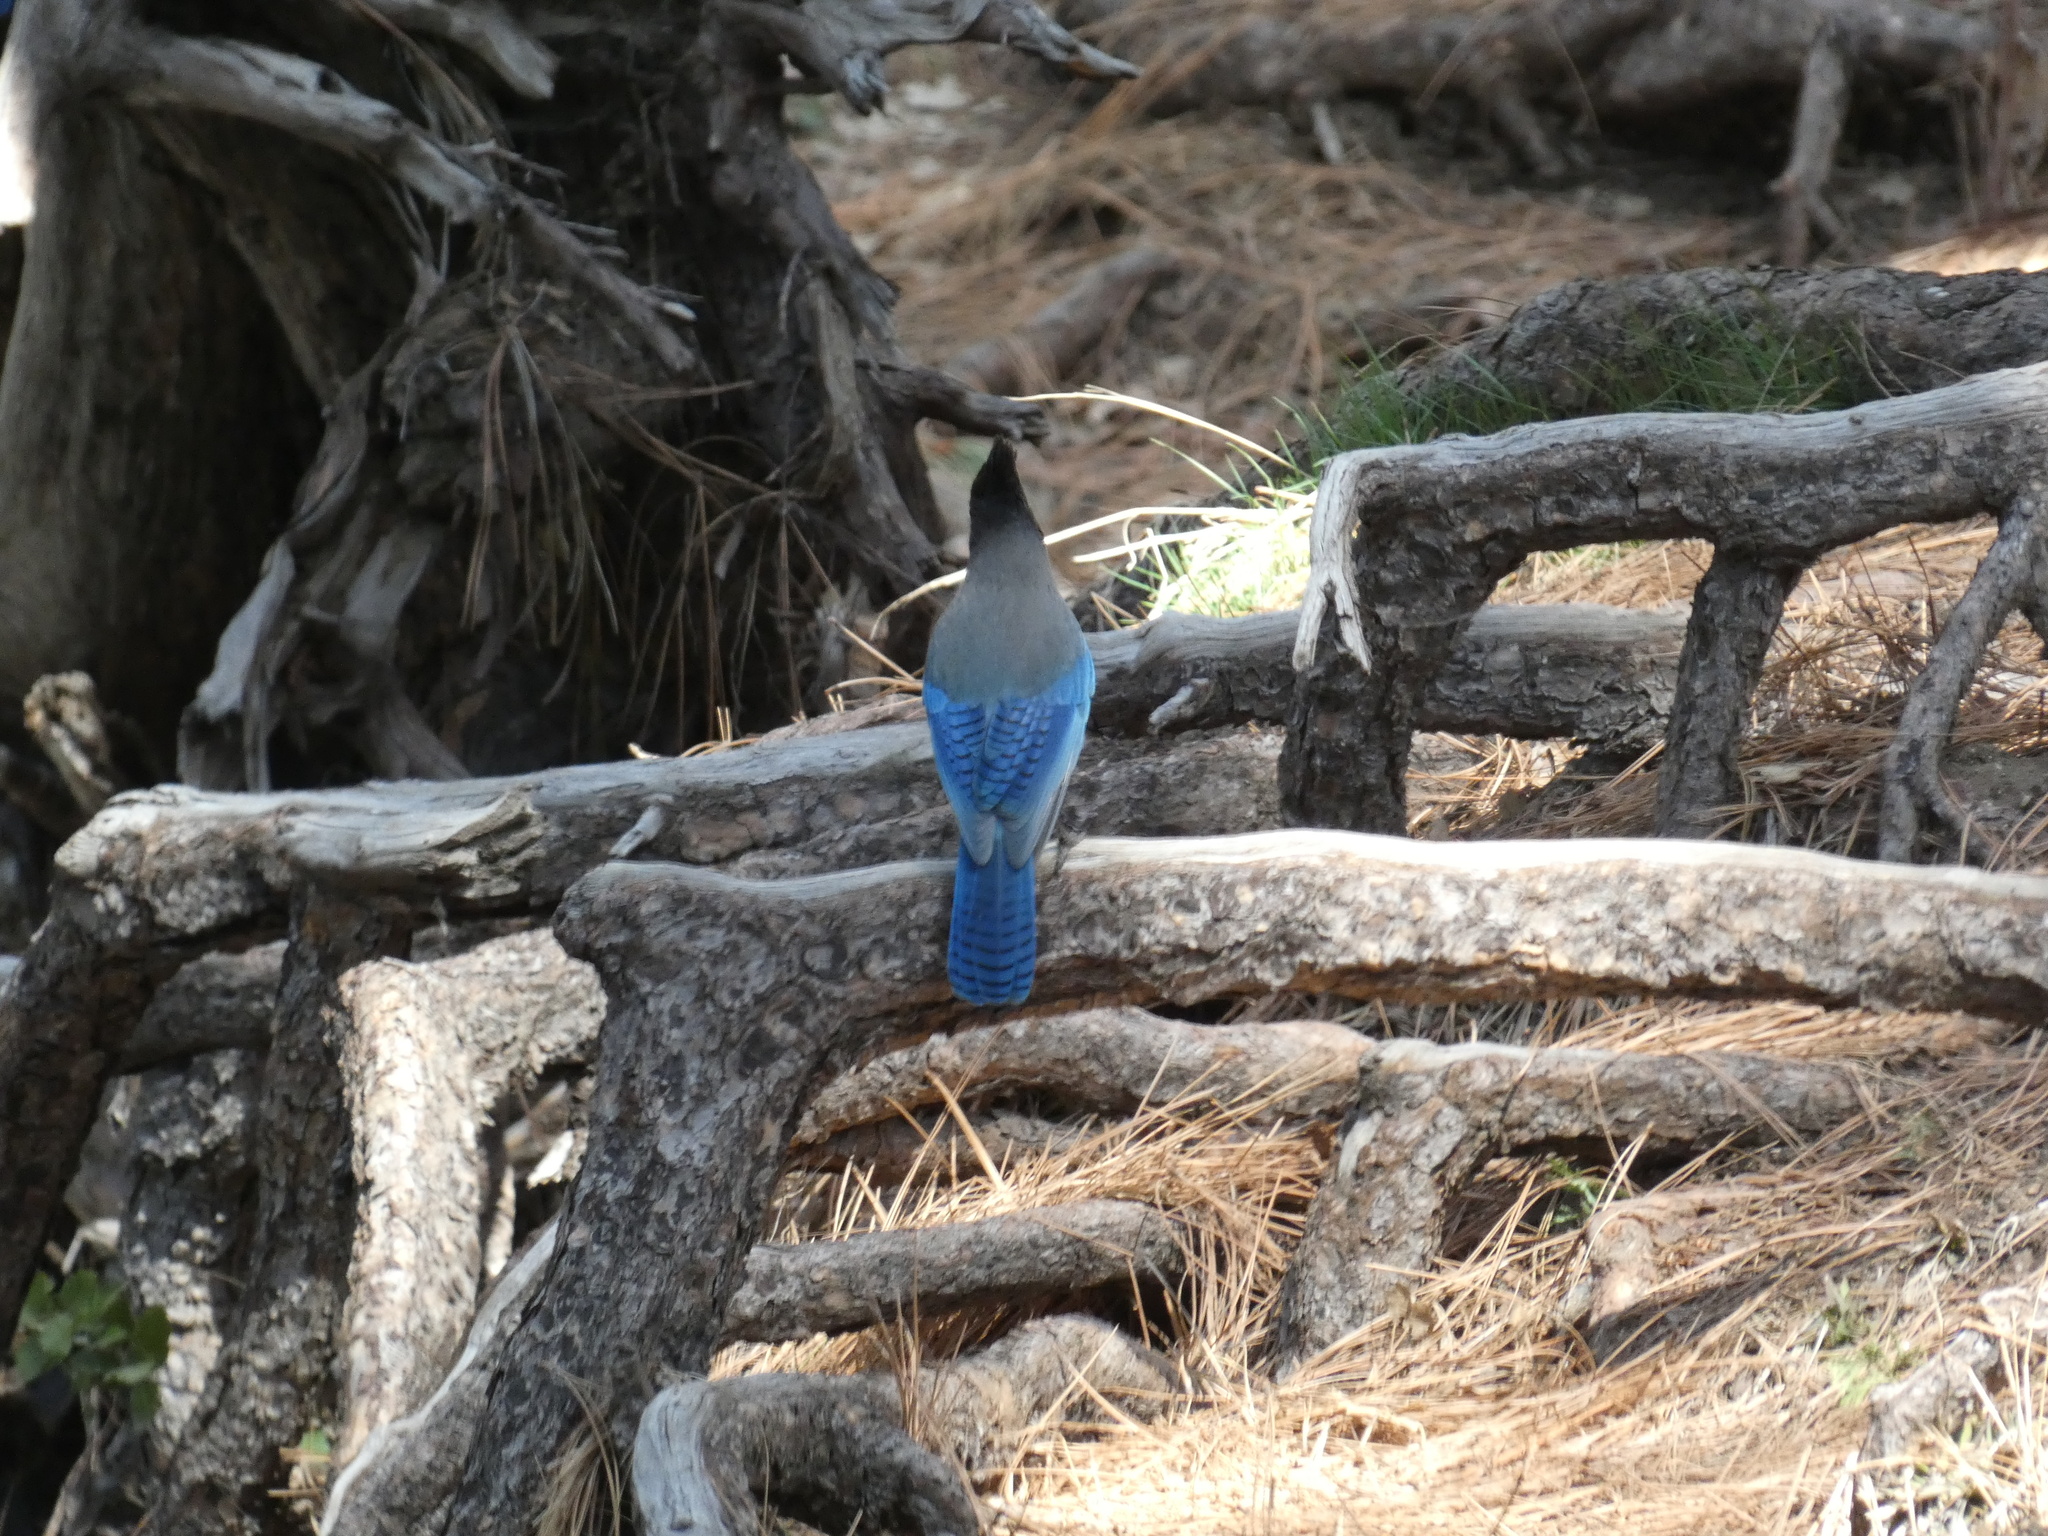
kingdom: Animalia
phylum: Chordata
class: Aves
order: Passeriformes
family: Corvidae
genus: Cyanocitta
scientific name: Cyanocitta stelleri
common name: Steller's jay
